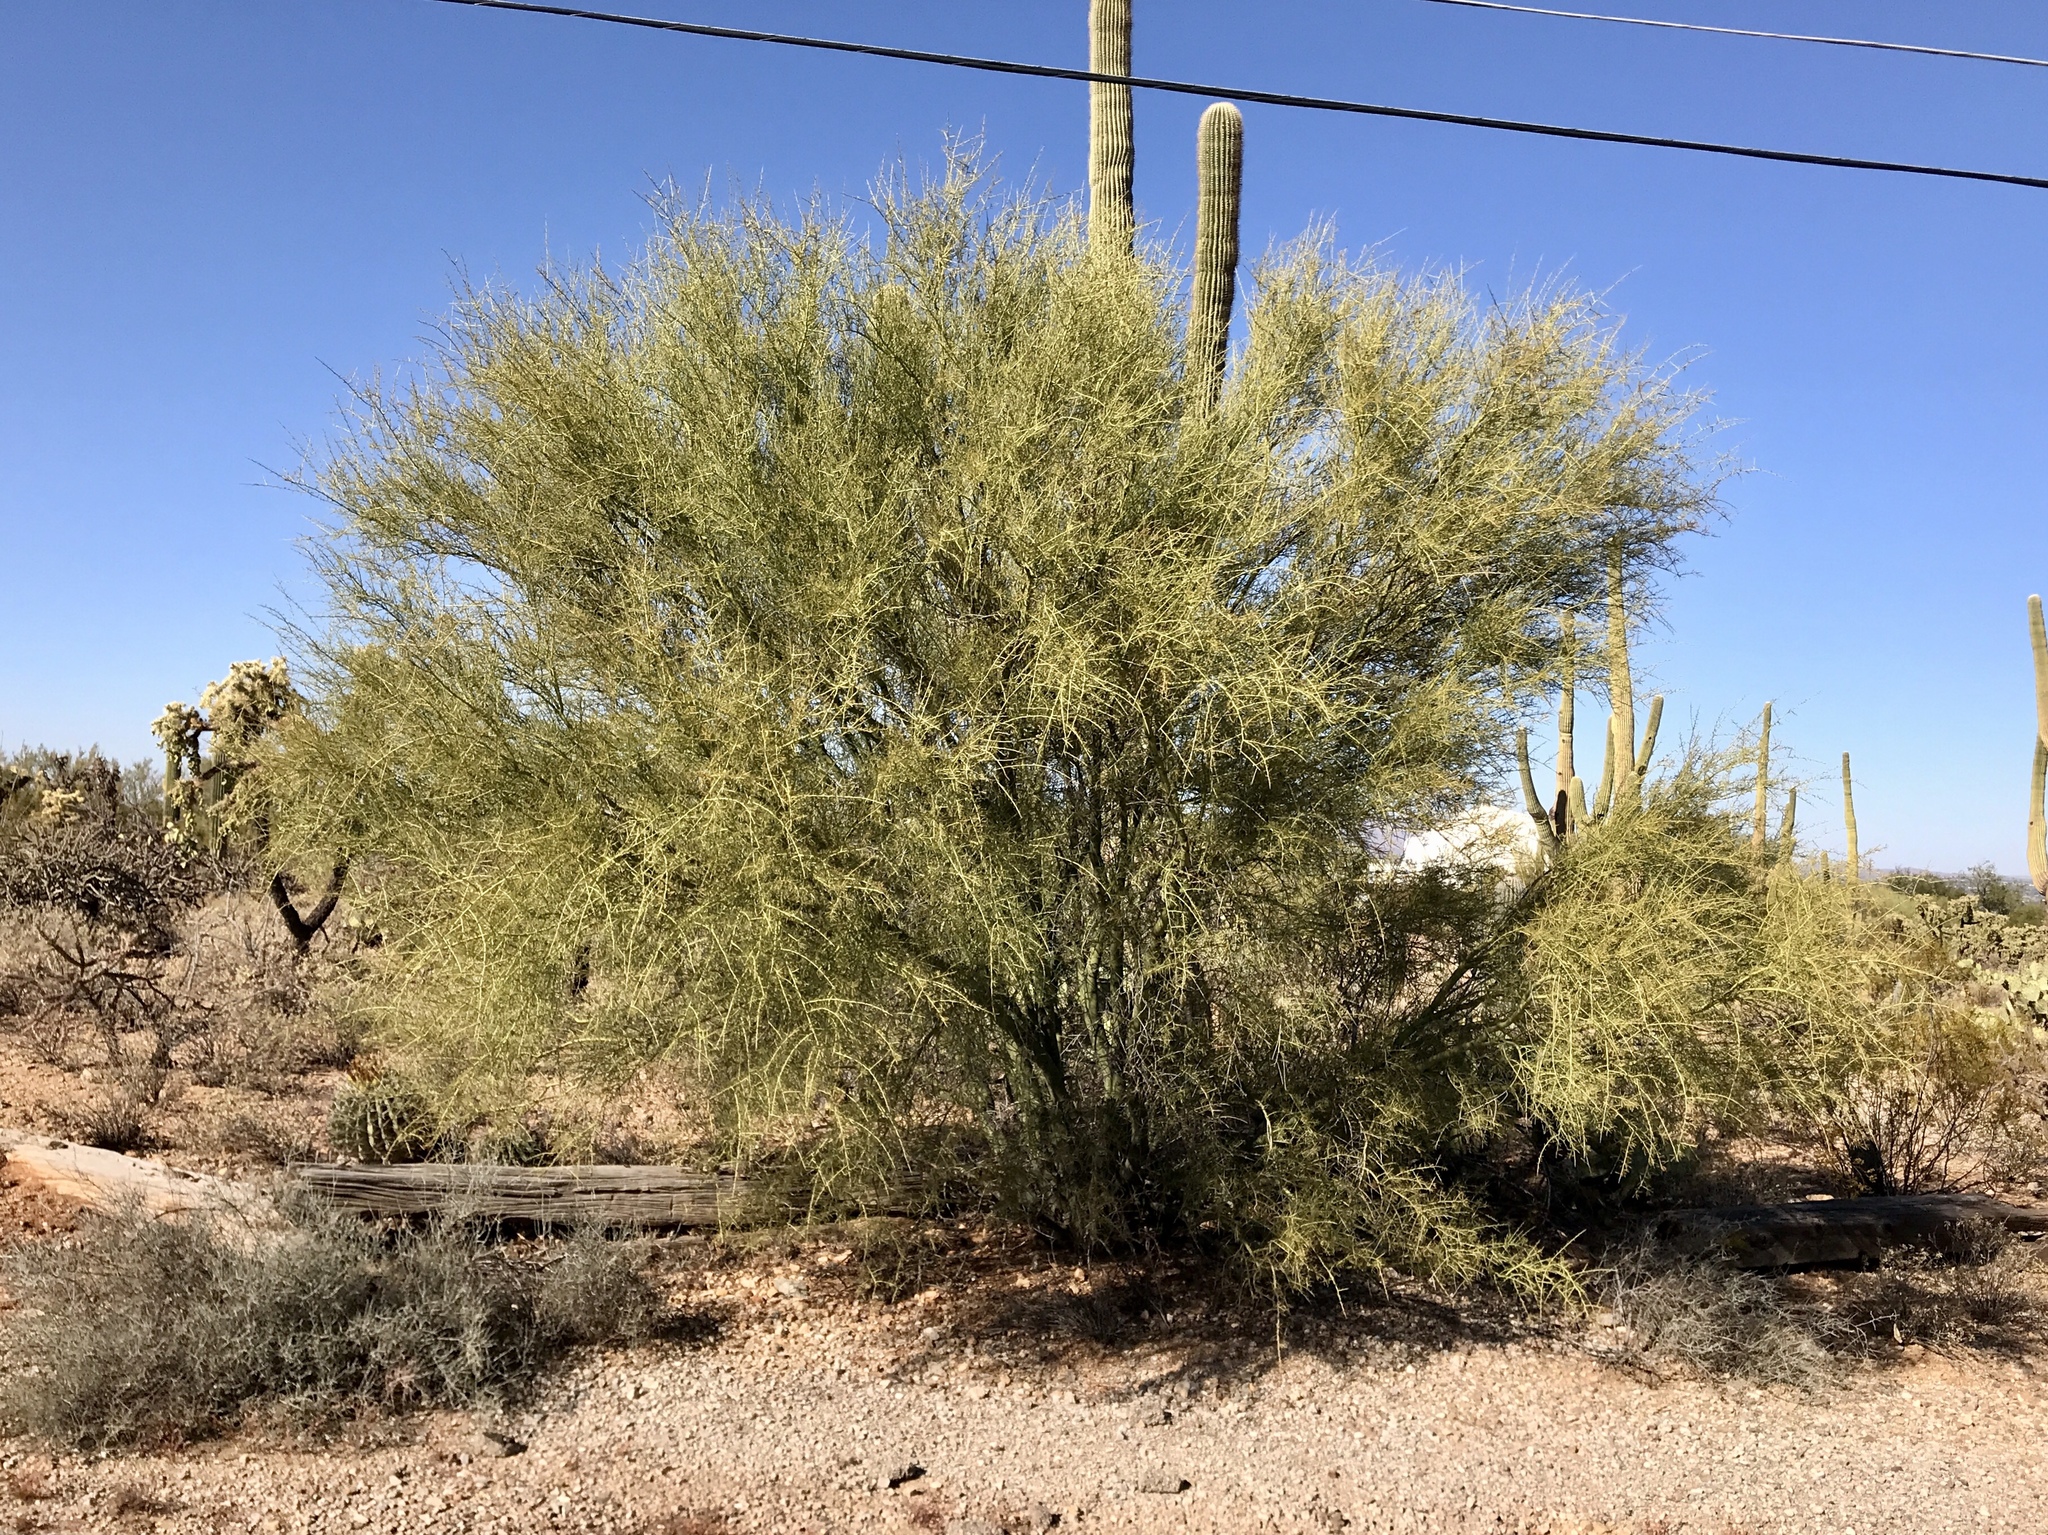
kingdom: Plantae
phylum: Tracheophyta
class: Magnoliopsida
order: Fabales
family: Fabaceae
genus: Parkinsonia
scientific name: Parkinsonia florida
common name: Blue paloverde
